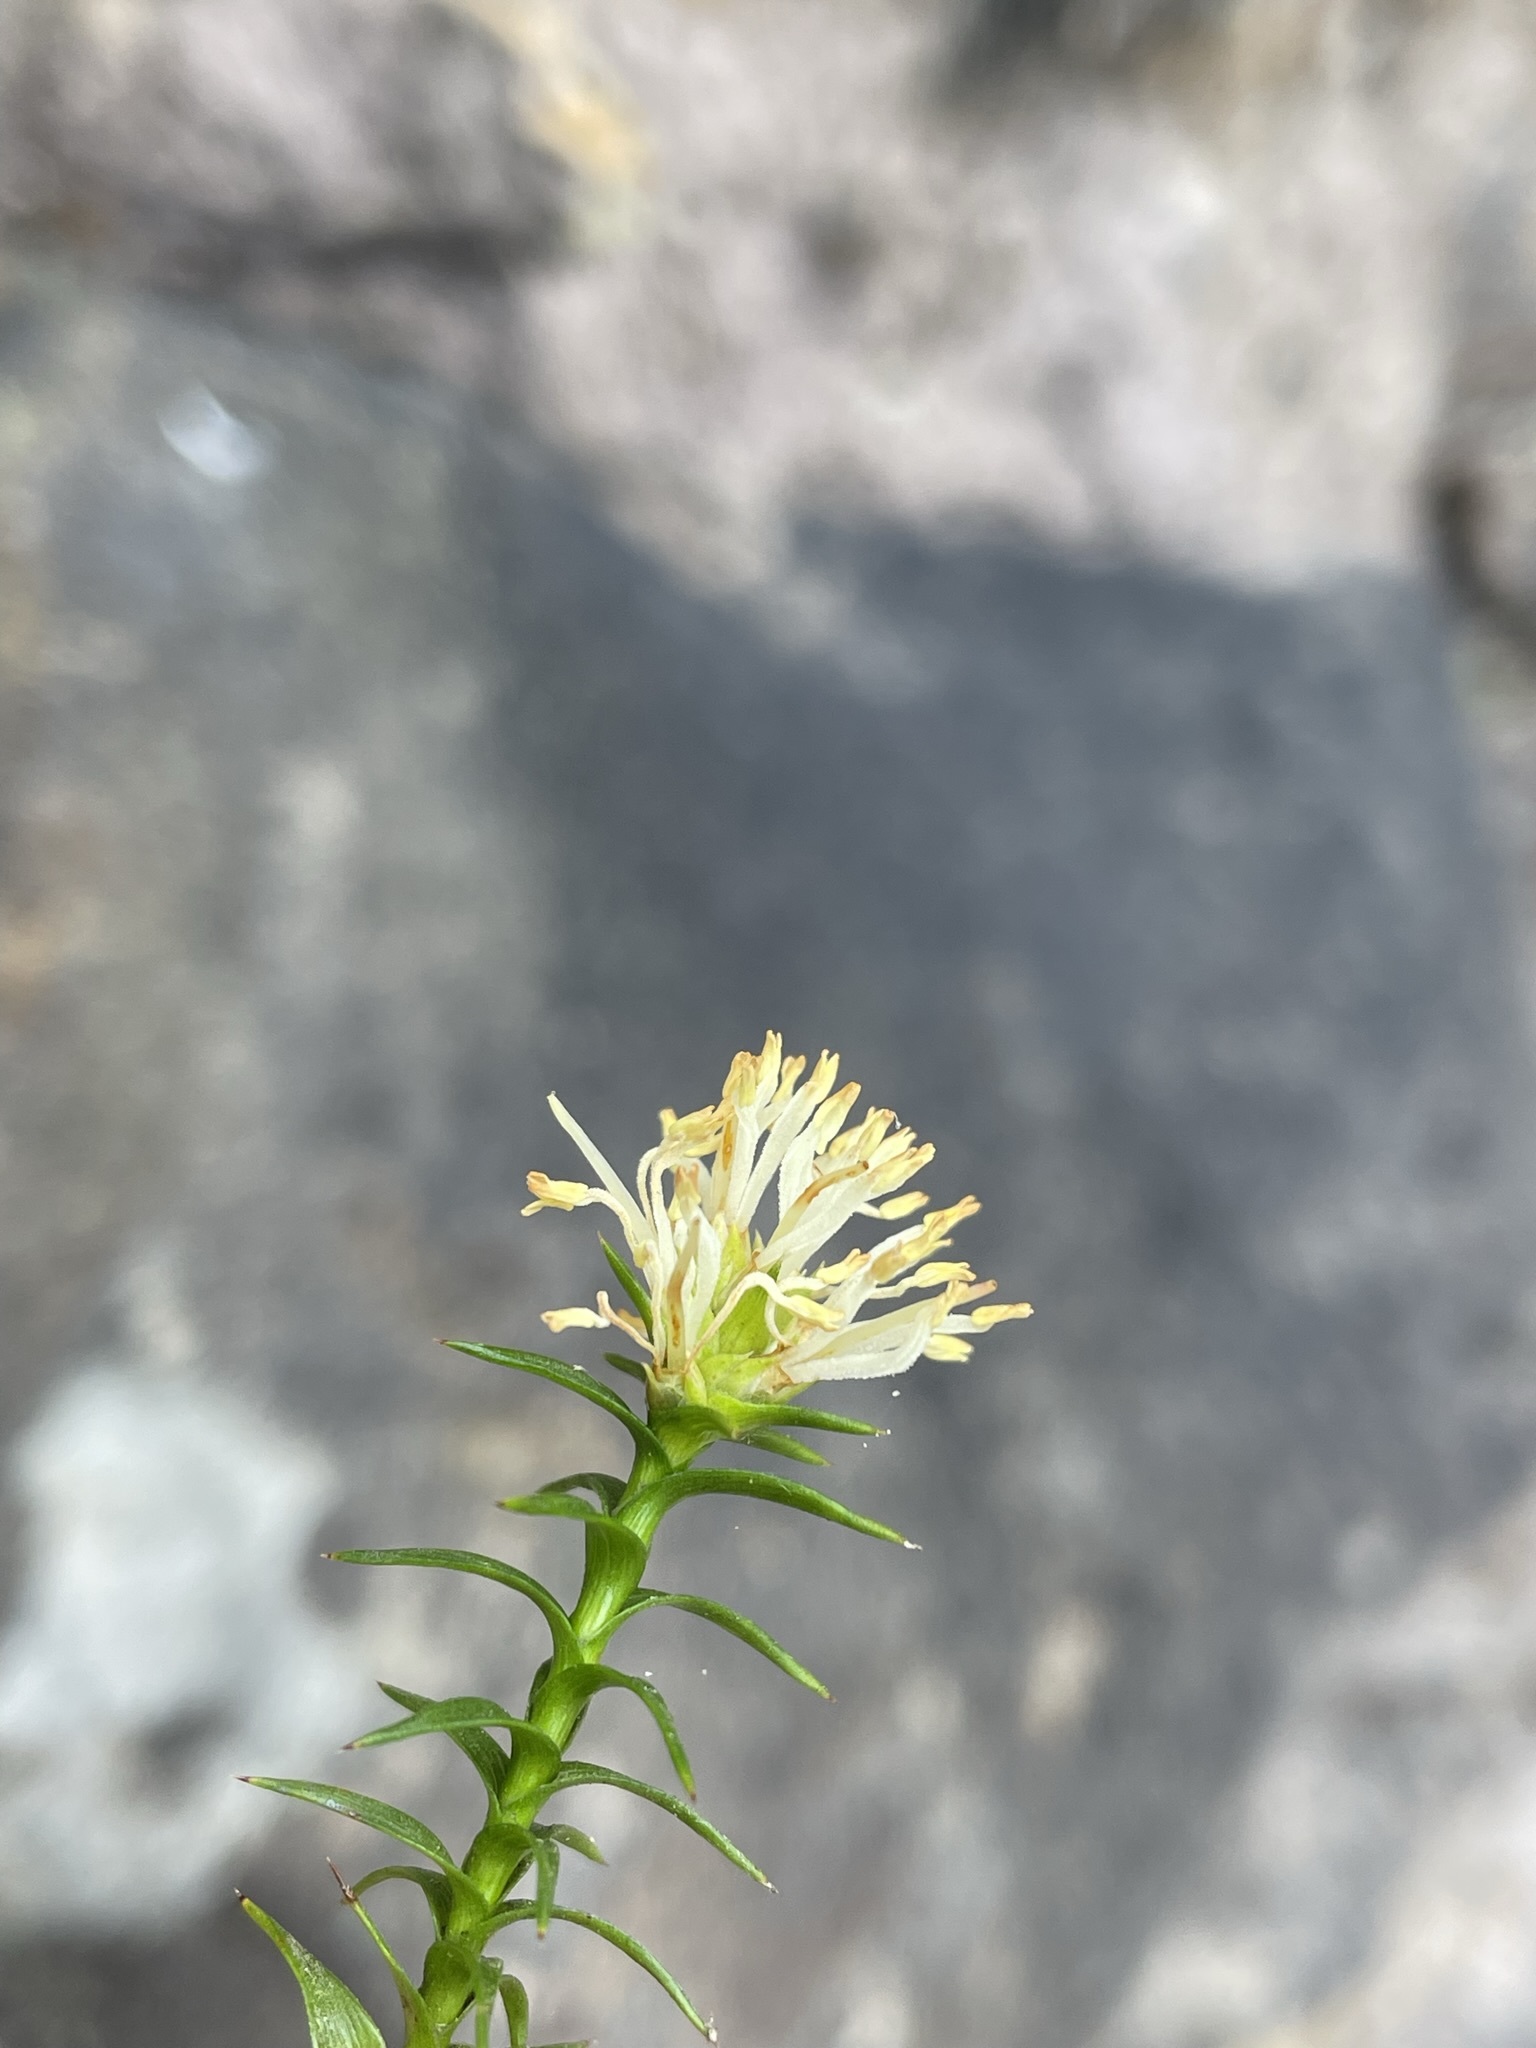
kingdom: Plantae
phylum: Tracheophyta
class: Magnoliopsida
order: Ericales
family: Ericaceae
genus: Dracophyllum
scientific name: Dracophyllum sprengelioides
